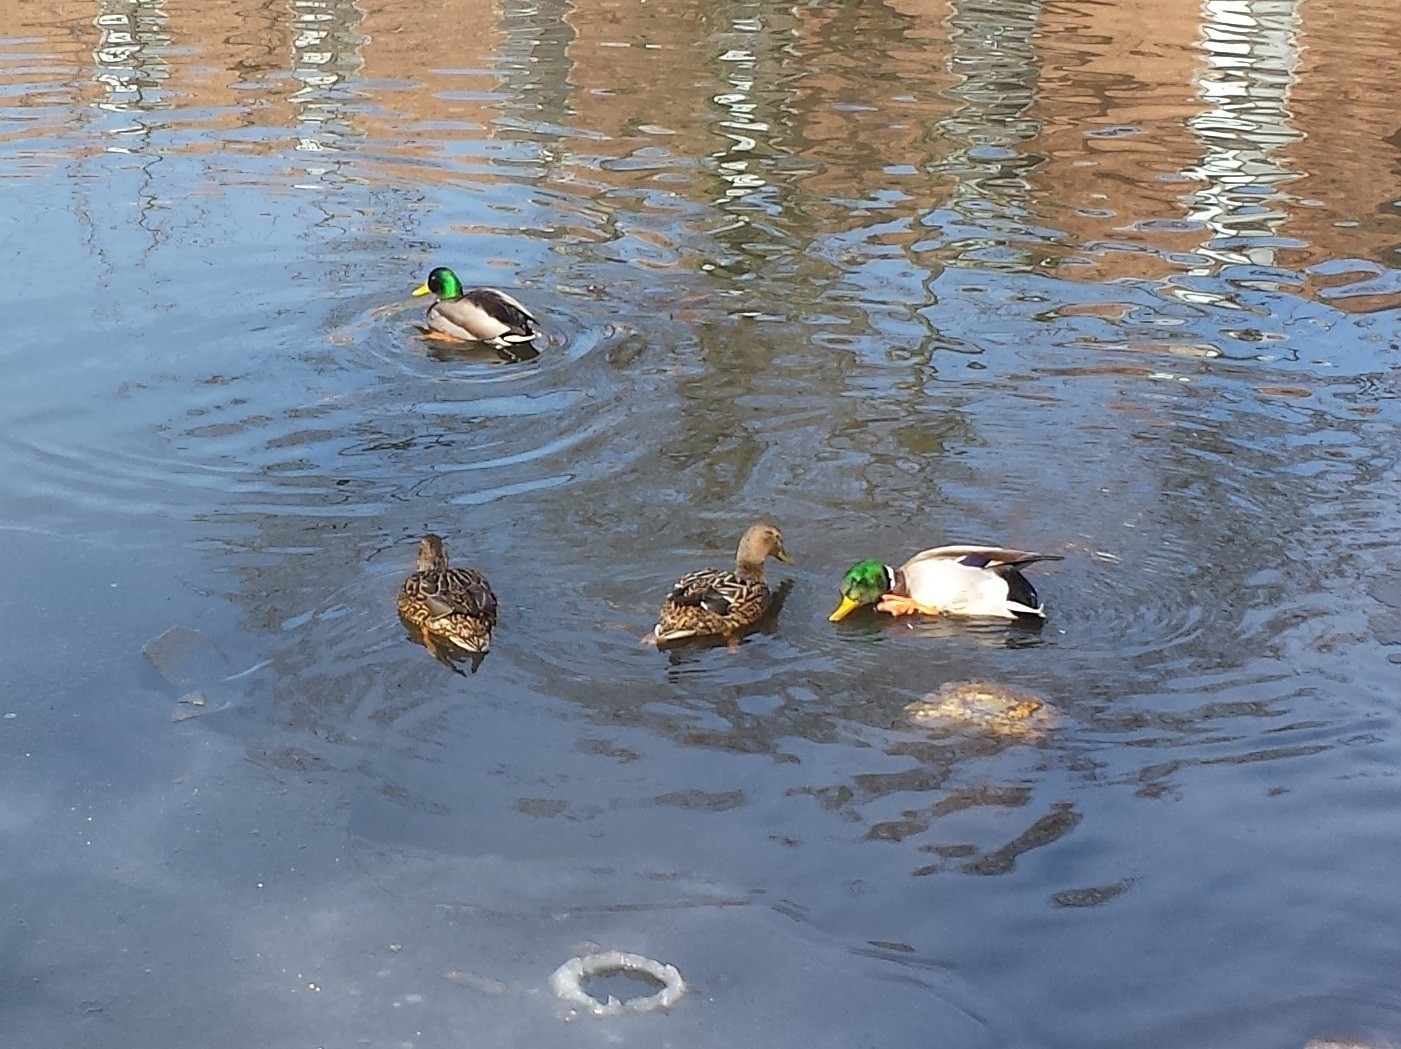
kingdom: Animalia
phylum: Chordata
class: Aves
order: Anseriformes
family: Anatidae
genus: Anas
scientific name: Anas platyrhynchos
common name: Mallard
